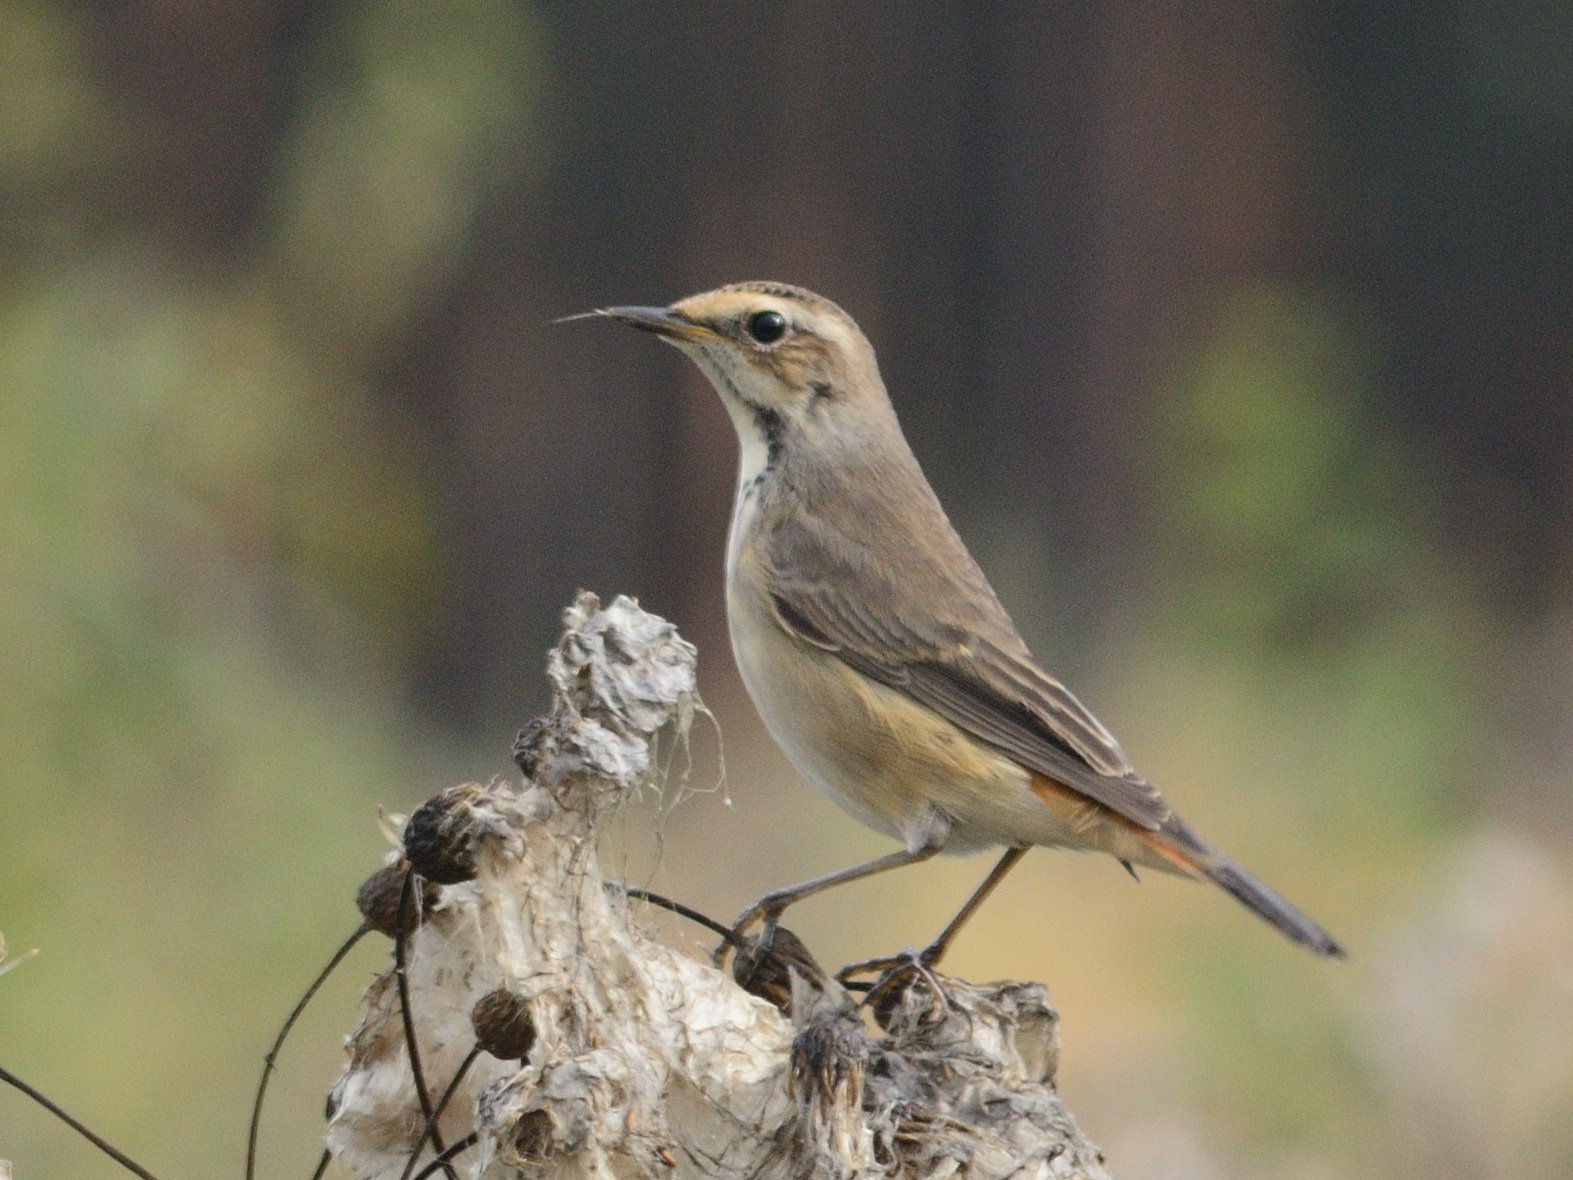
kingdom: Animalia
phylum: Chordata
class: Aves
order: Passeriformes
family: Muscicapidae
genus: Luscinia
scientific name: Luscinia svecica
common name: Bluethroat
